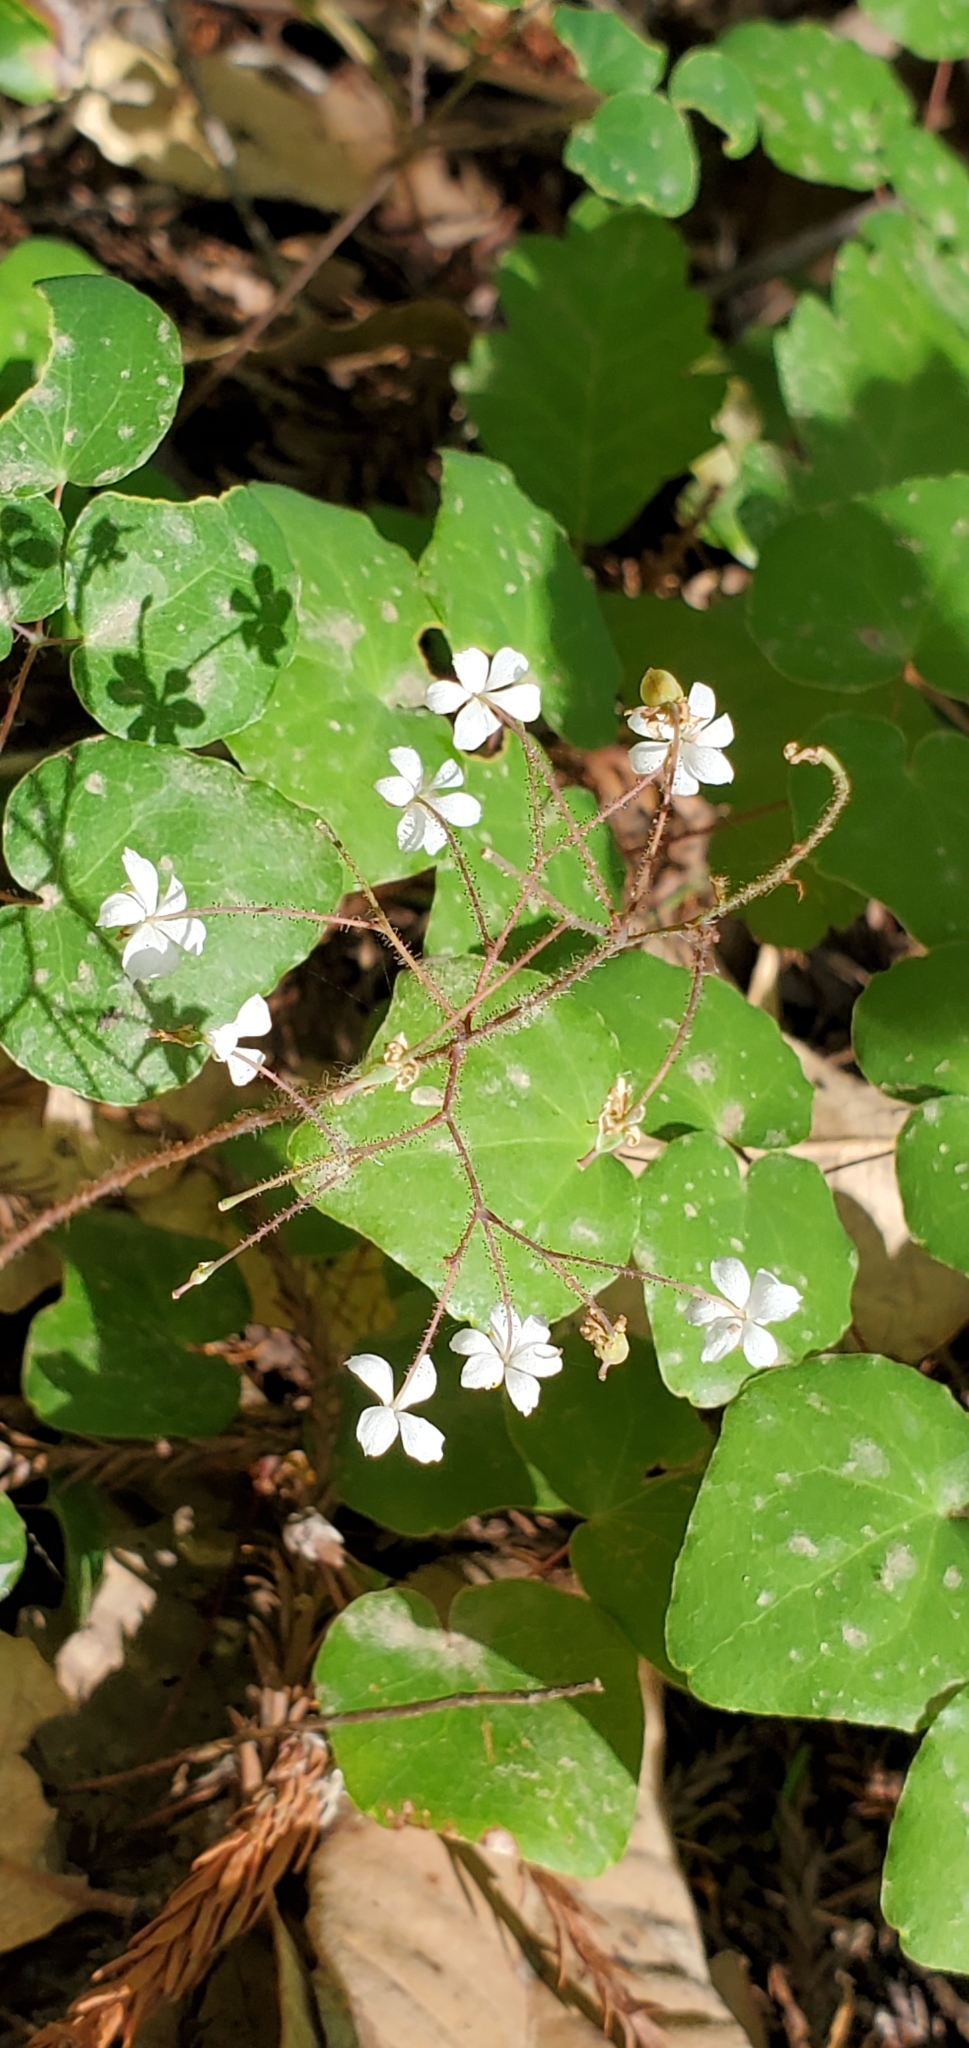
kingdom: Plantae
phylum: Tracheophyta
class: Magnoliopsida
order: Ranunculales
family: Berberidaceae
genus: Vancouveria
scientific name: Vancouveria planipetala
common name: Redwood-ivy
